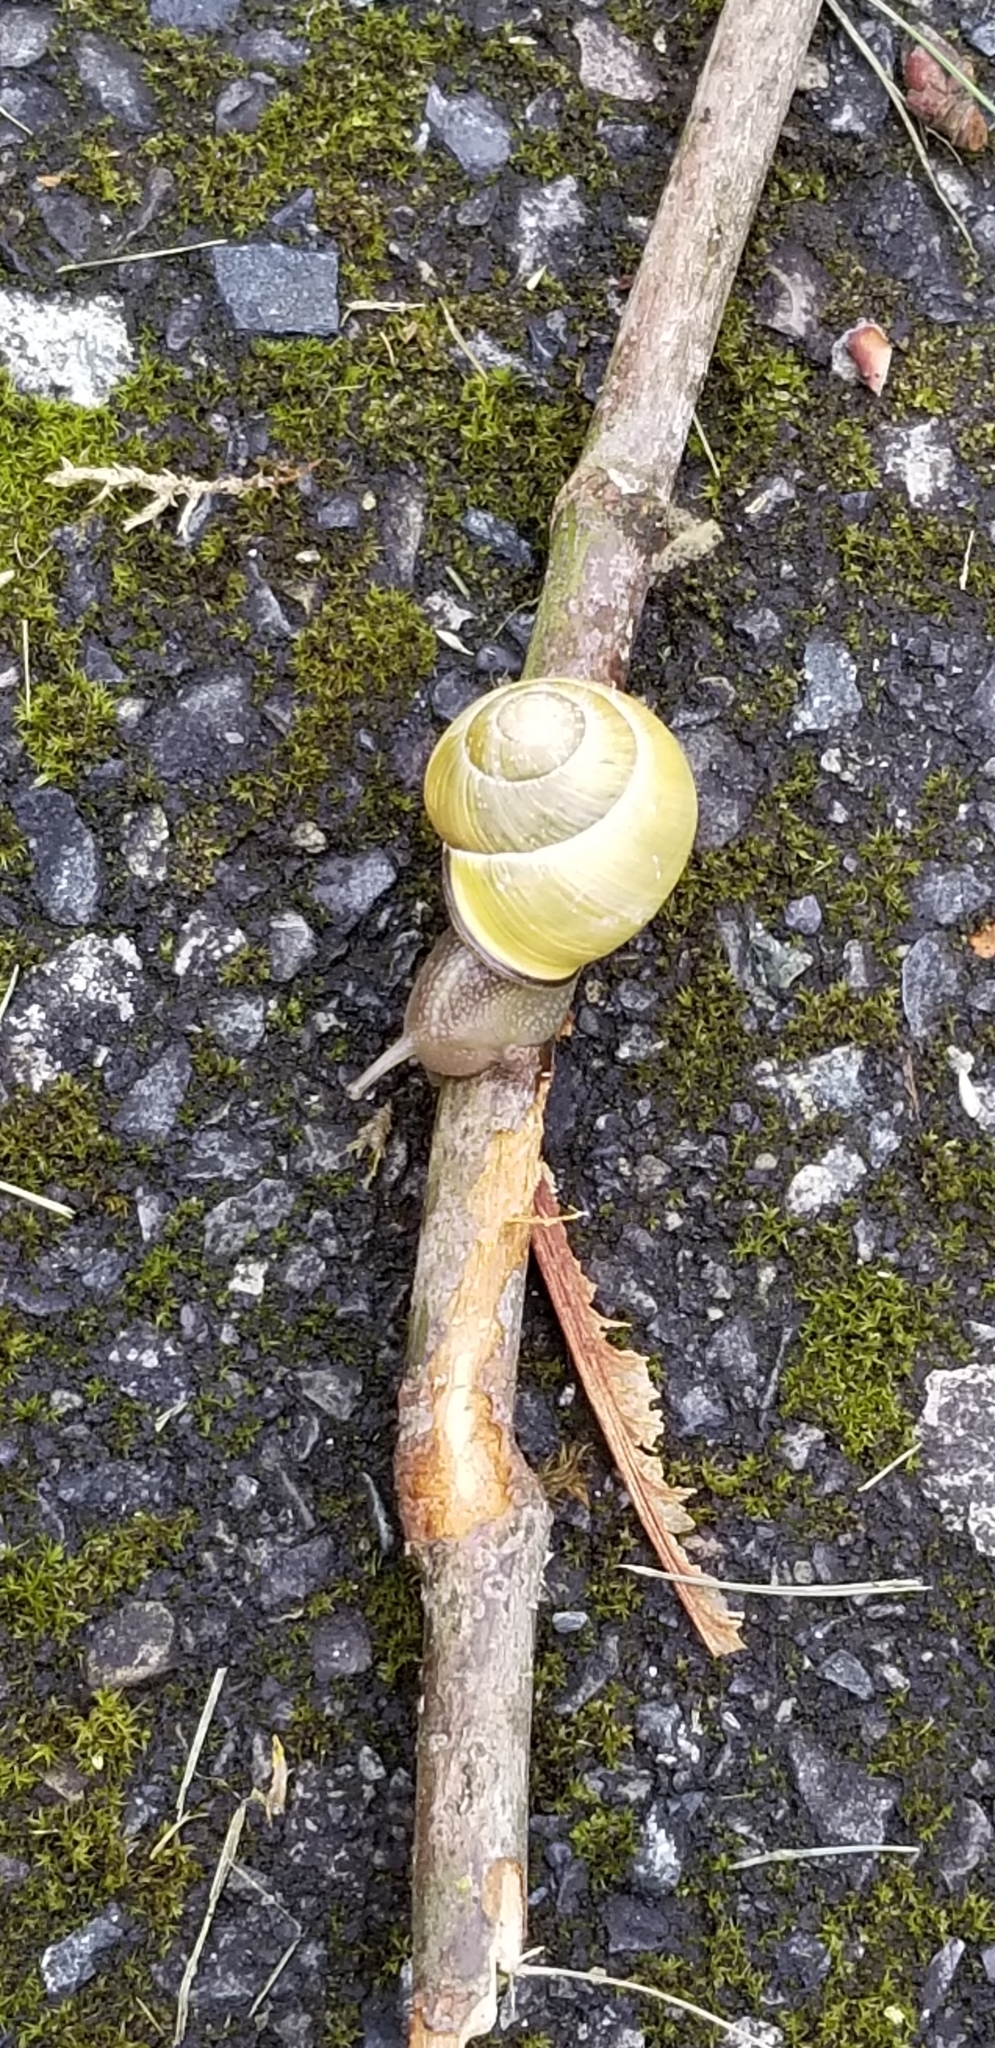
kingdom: Animalia
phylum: Mollusca
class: Gastropoda
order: Stylommatophora
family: Helicidae
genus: Cepaea
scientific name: Cepaea nemoralis
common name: Grovesnail
